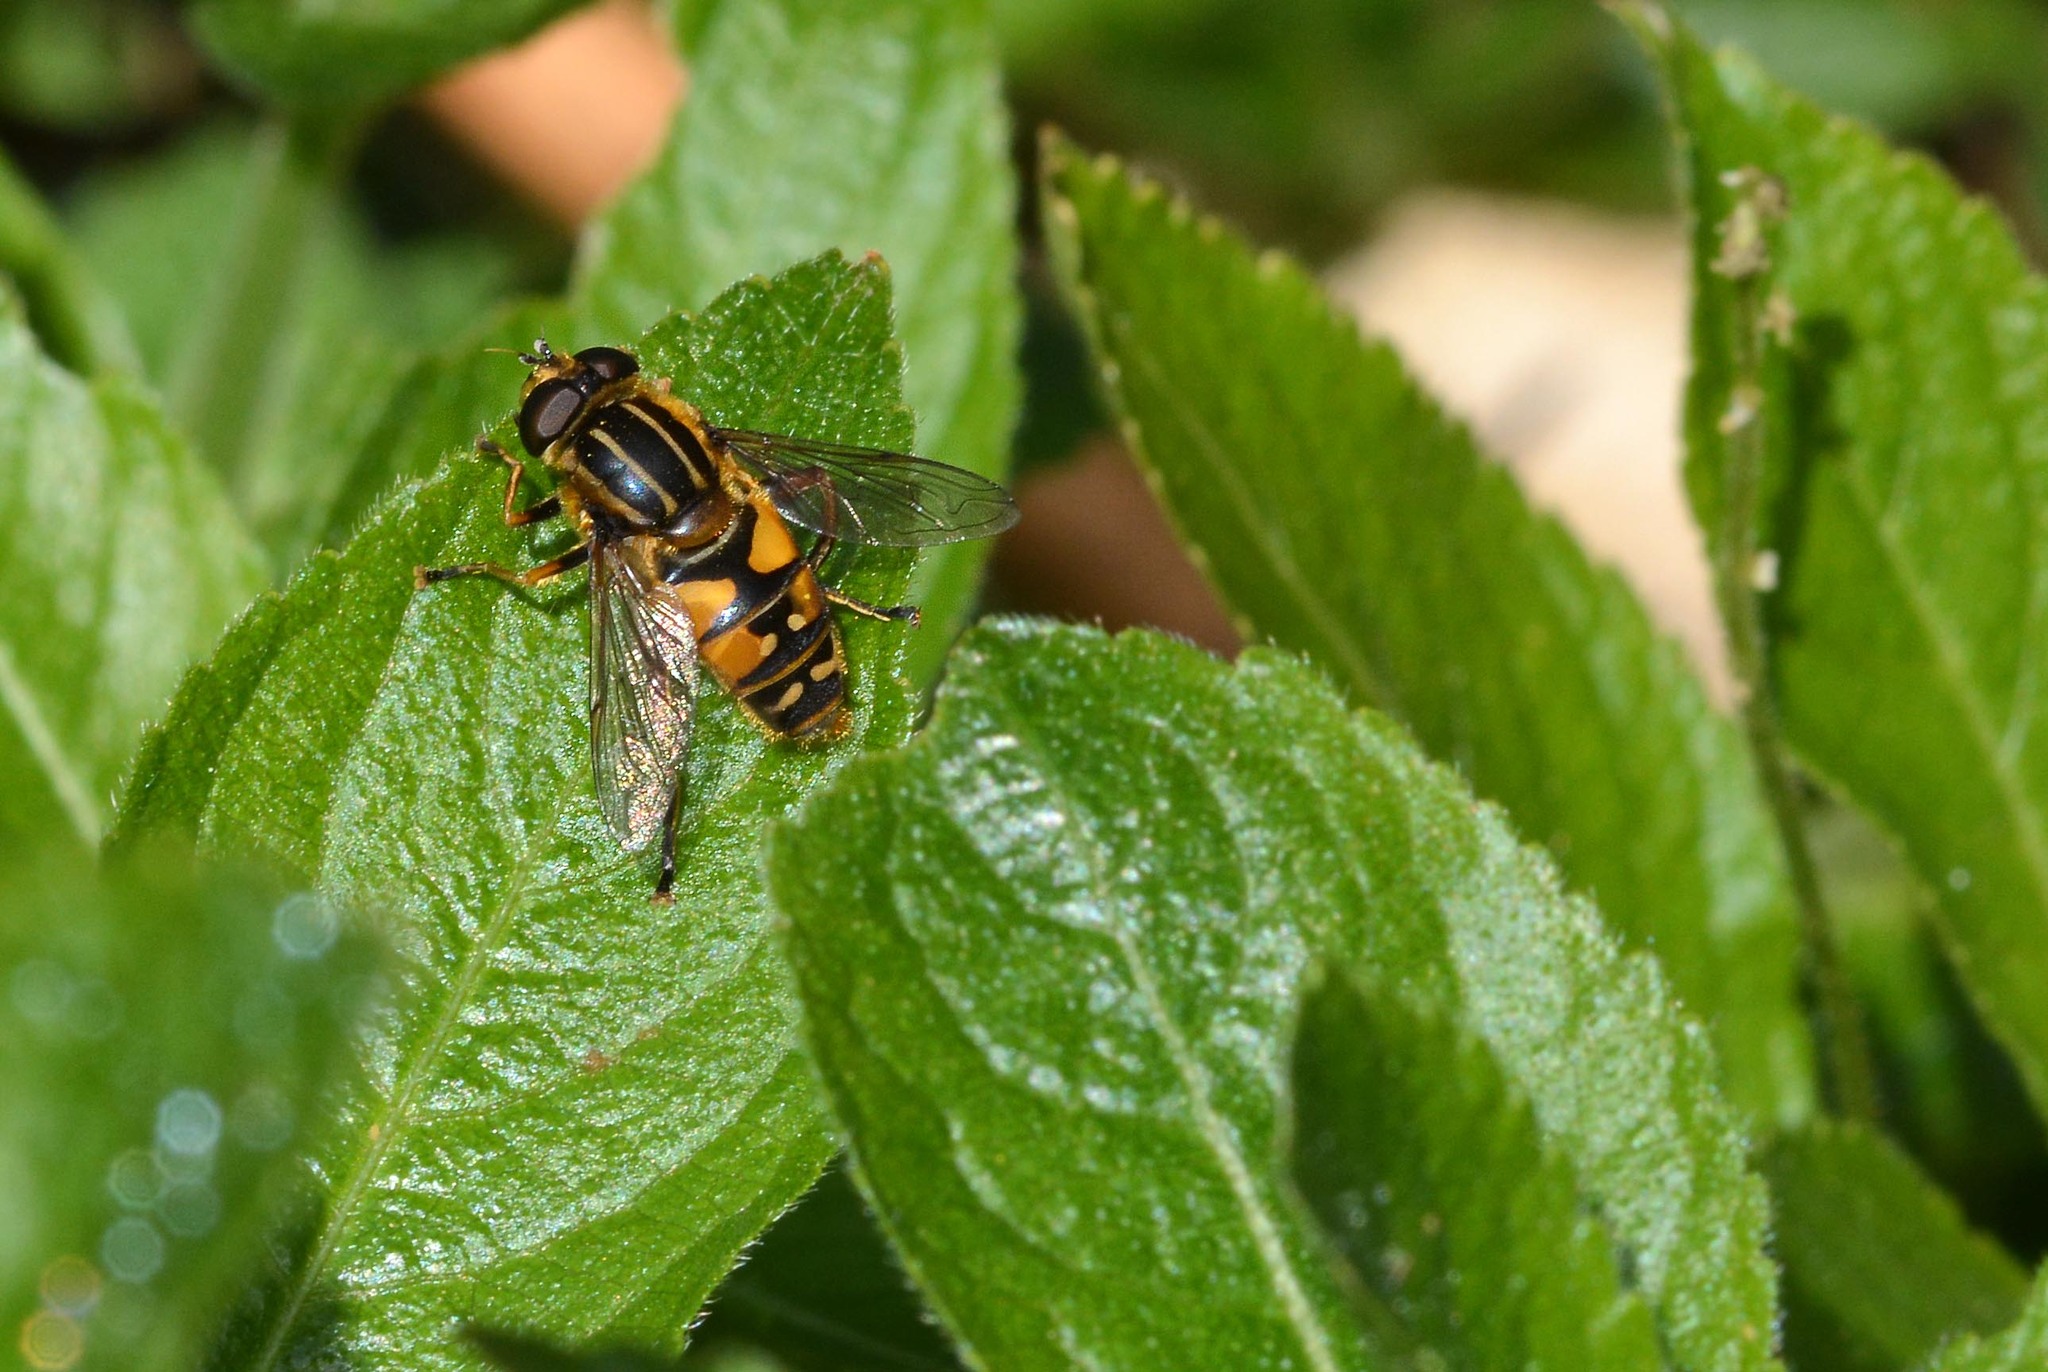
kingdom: Animalia
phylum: Arthropoda
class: Insecta
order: Diptera
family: Syrphidae
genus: Helophilus
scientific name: Helophilus pendulus
